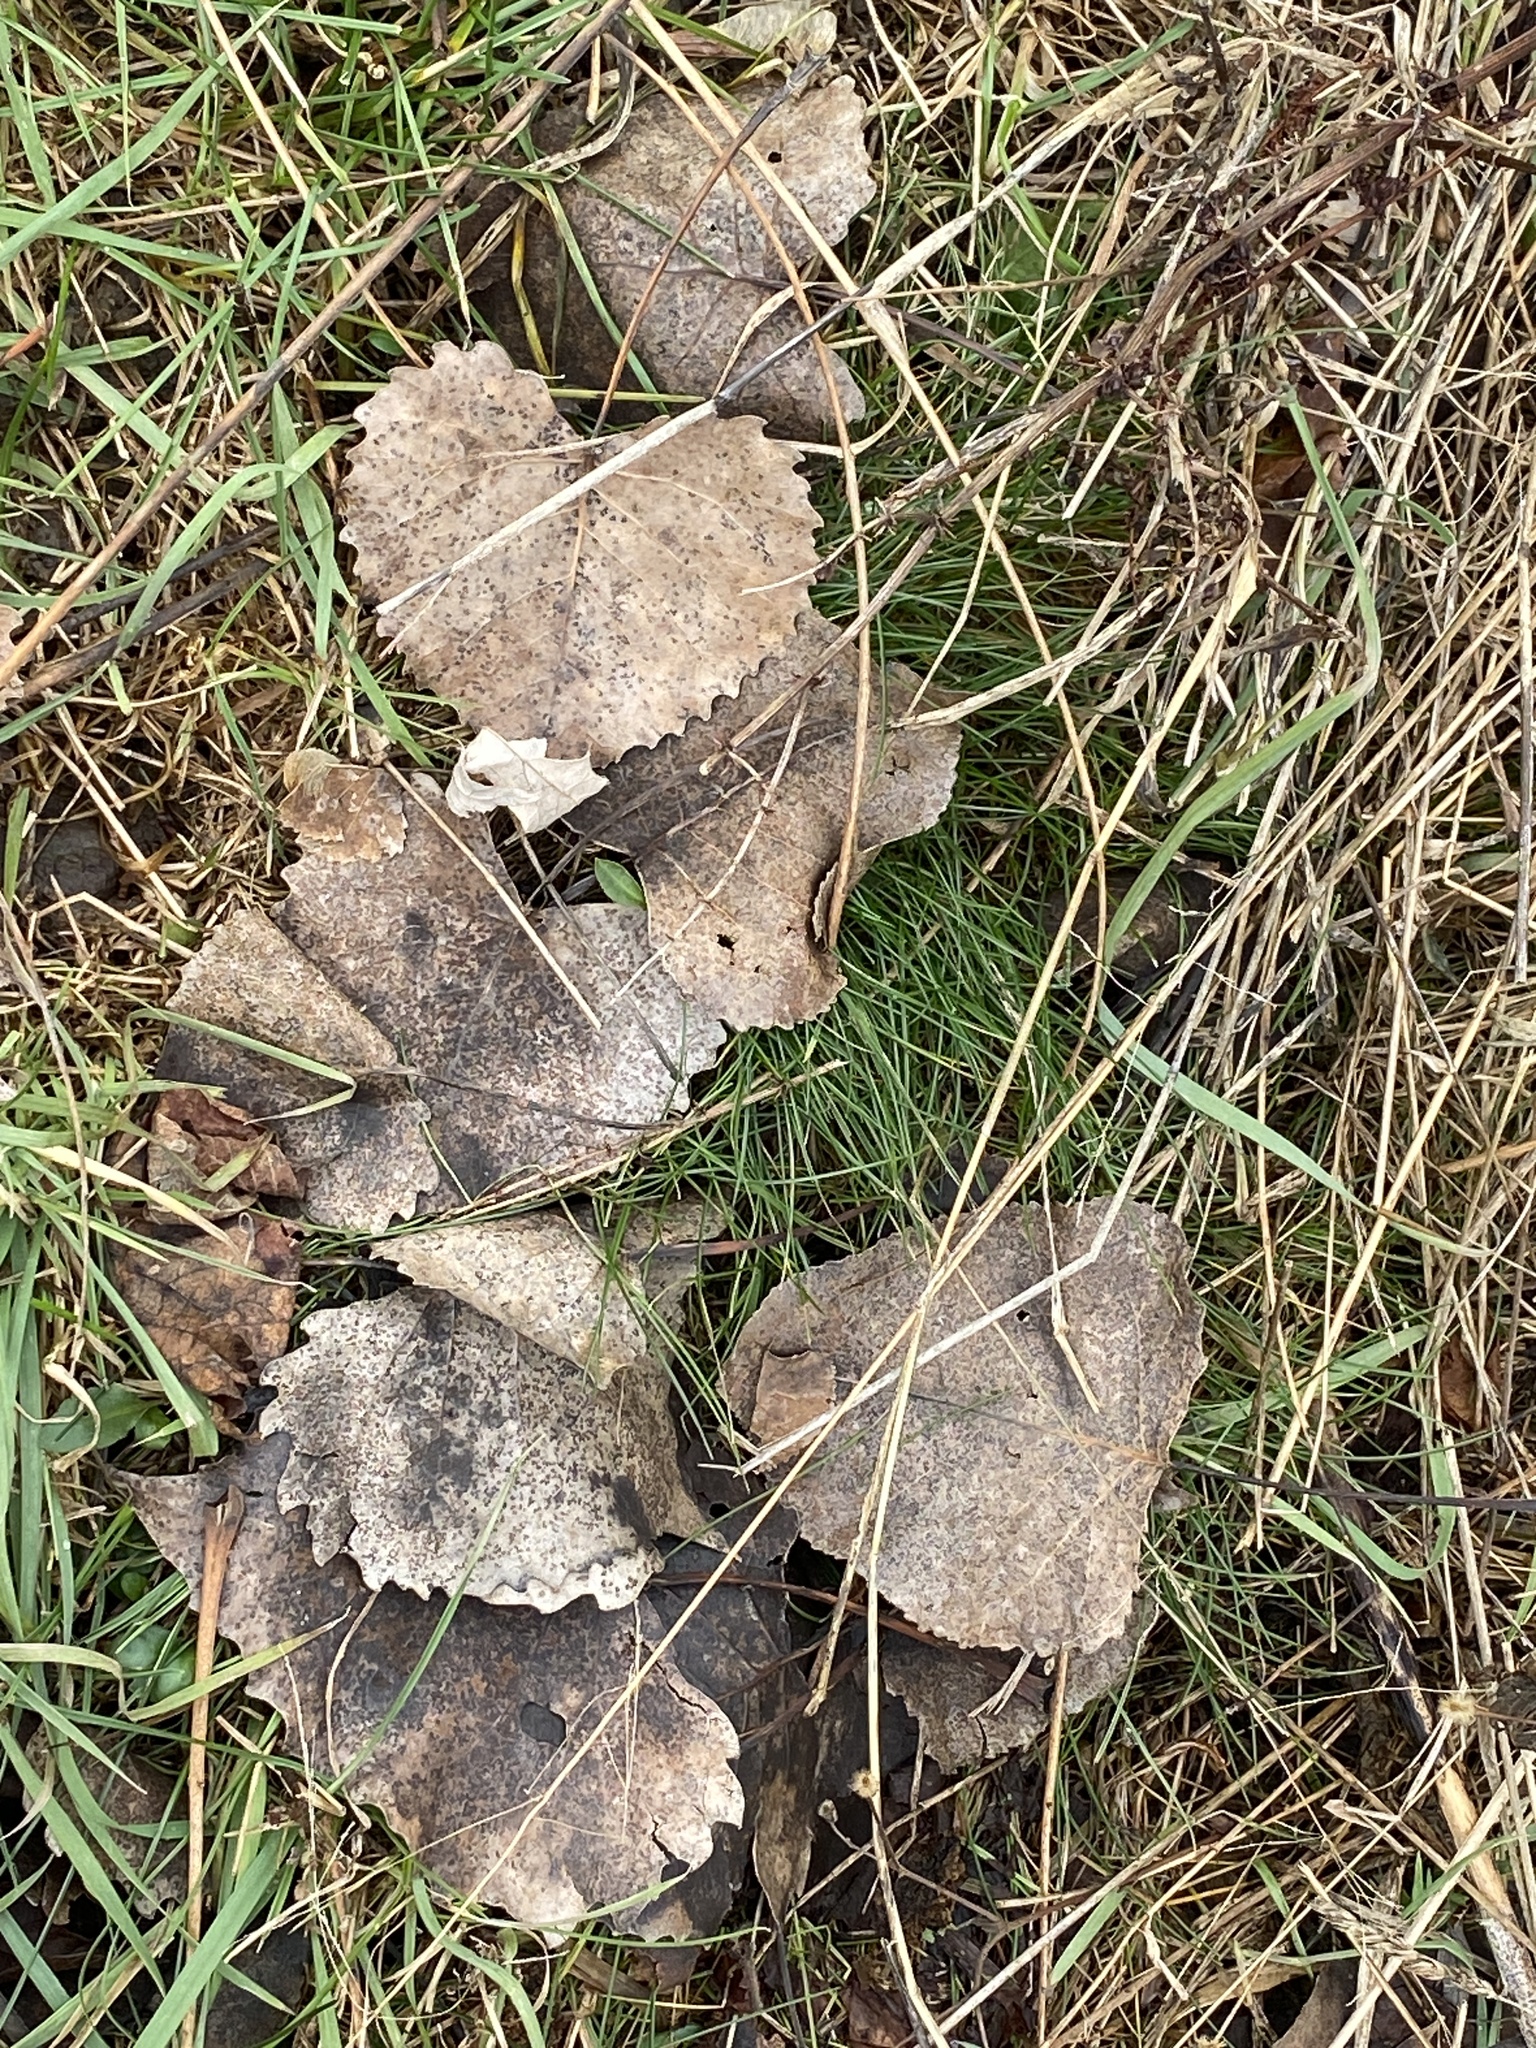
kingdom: Plantae
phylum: Tracheophyta
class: Magnoliopsida
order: Malpighiales
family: Salicaceae
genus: Populus
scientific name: Populus deltoides
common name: Eastern cottonwood
